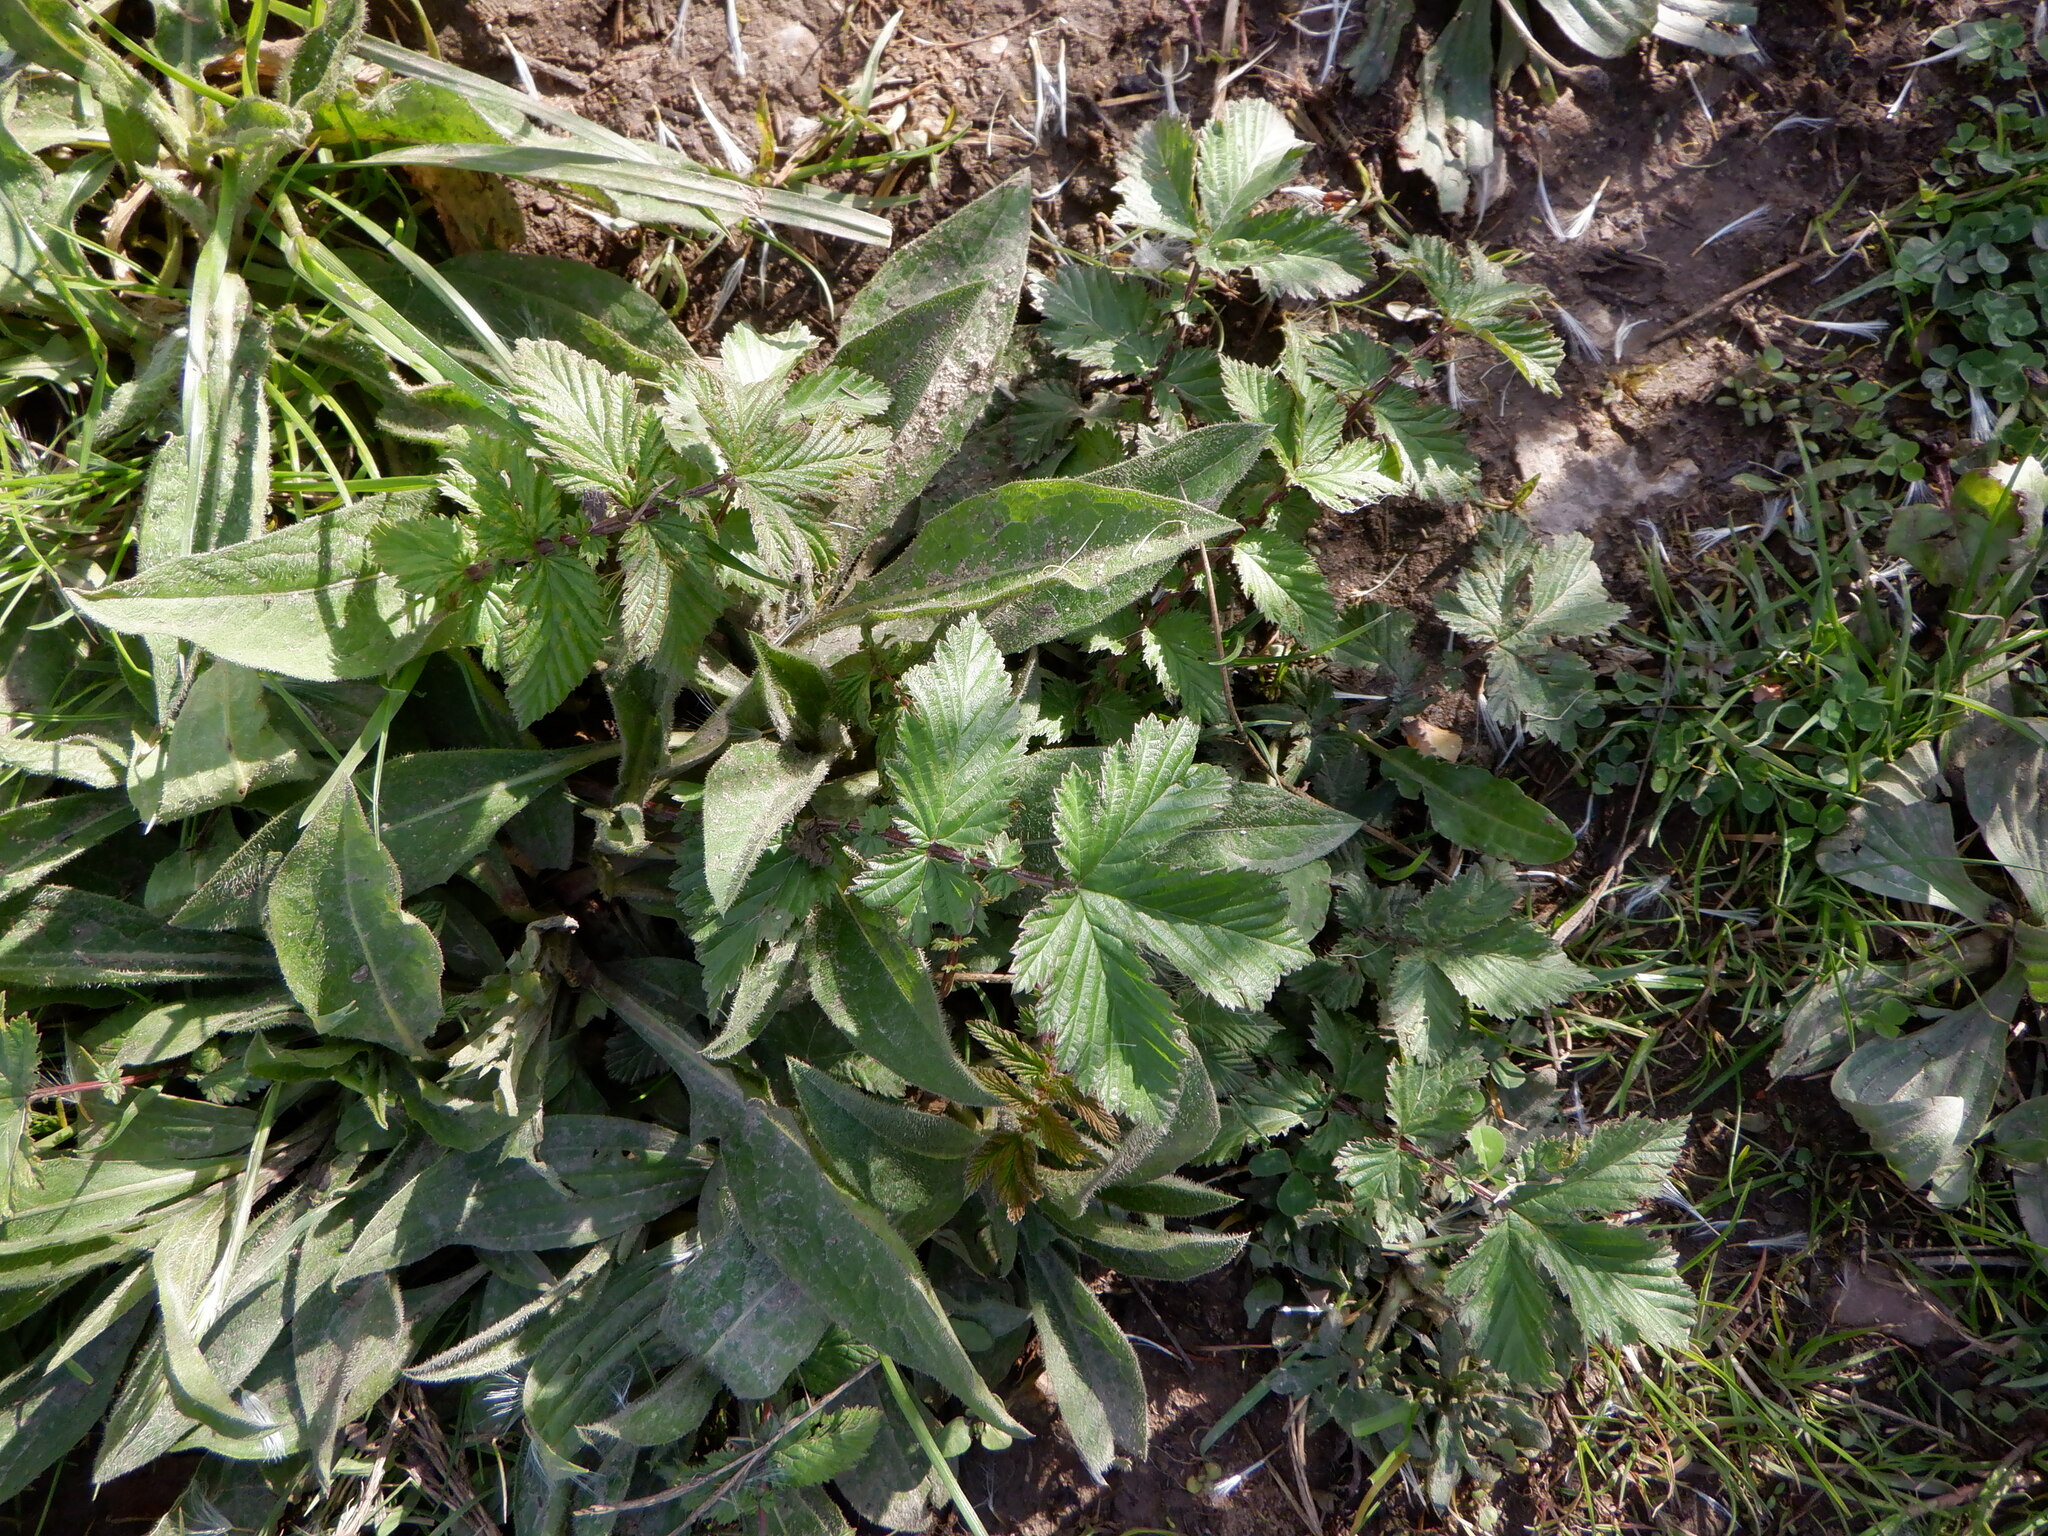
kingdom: Plantae
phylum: Tracheophyta
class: Magnoliopsida
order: Rosales
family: Rosaceae
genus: Filipendula
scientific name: Filipendula ulmaria
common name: Meadowsweet
